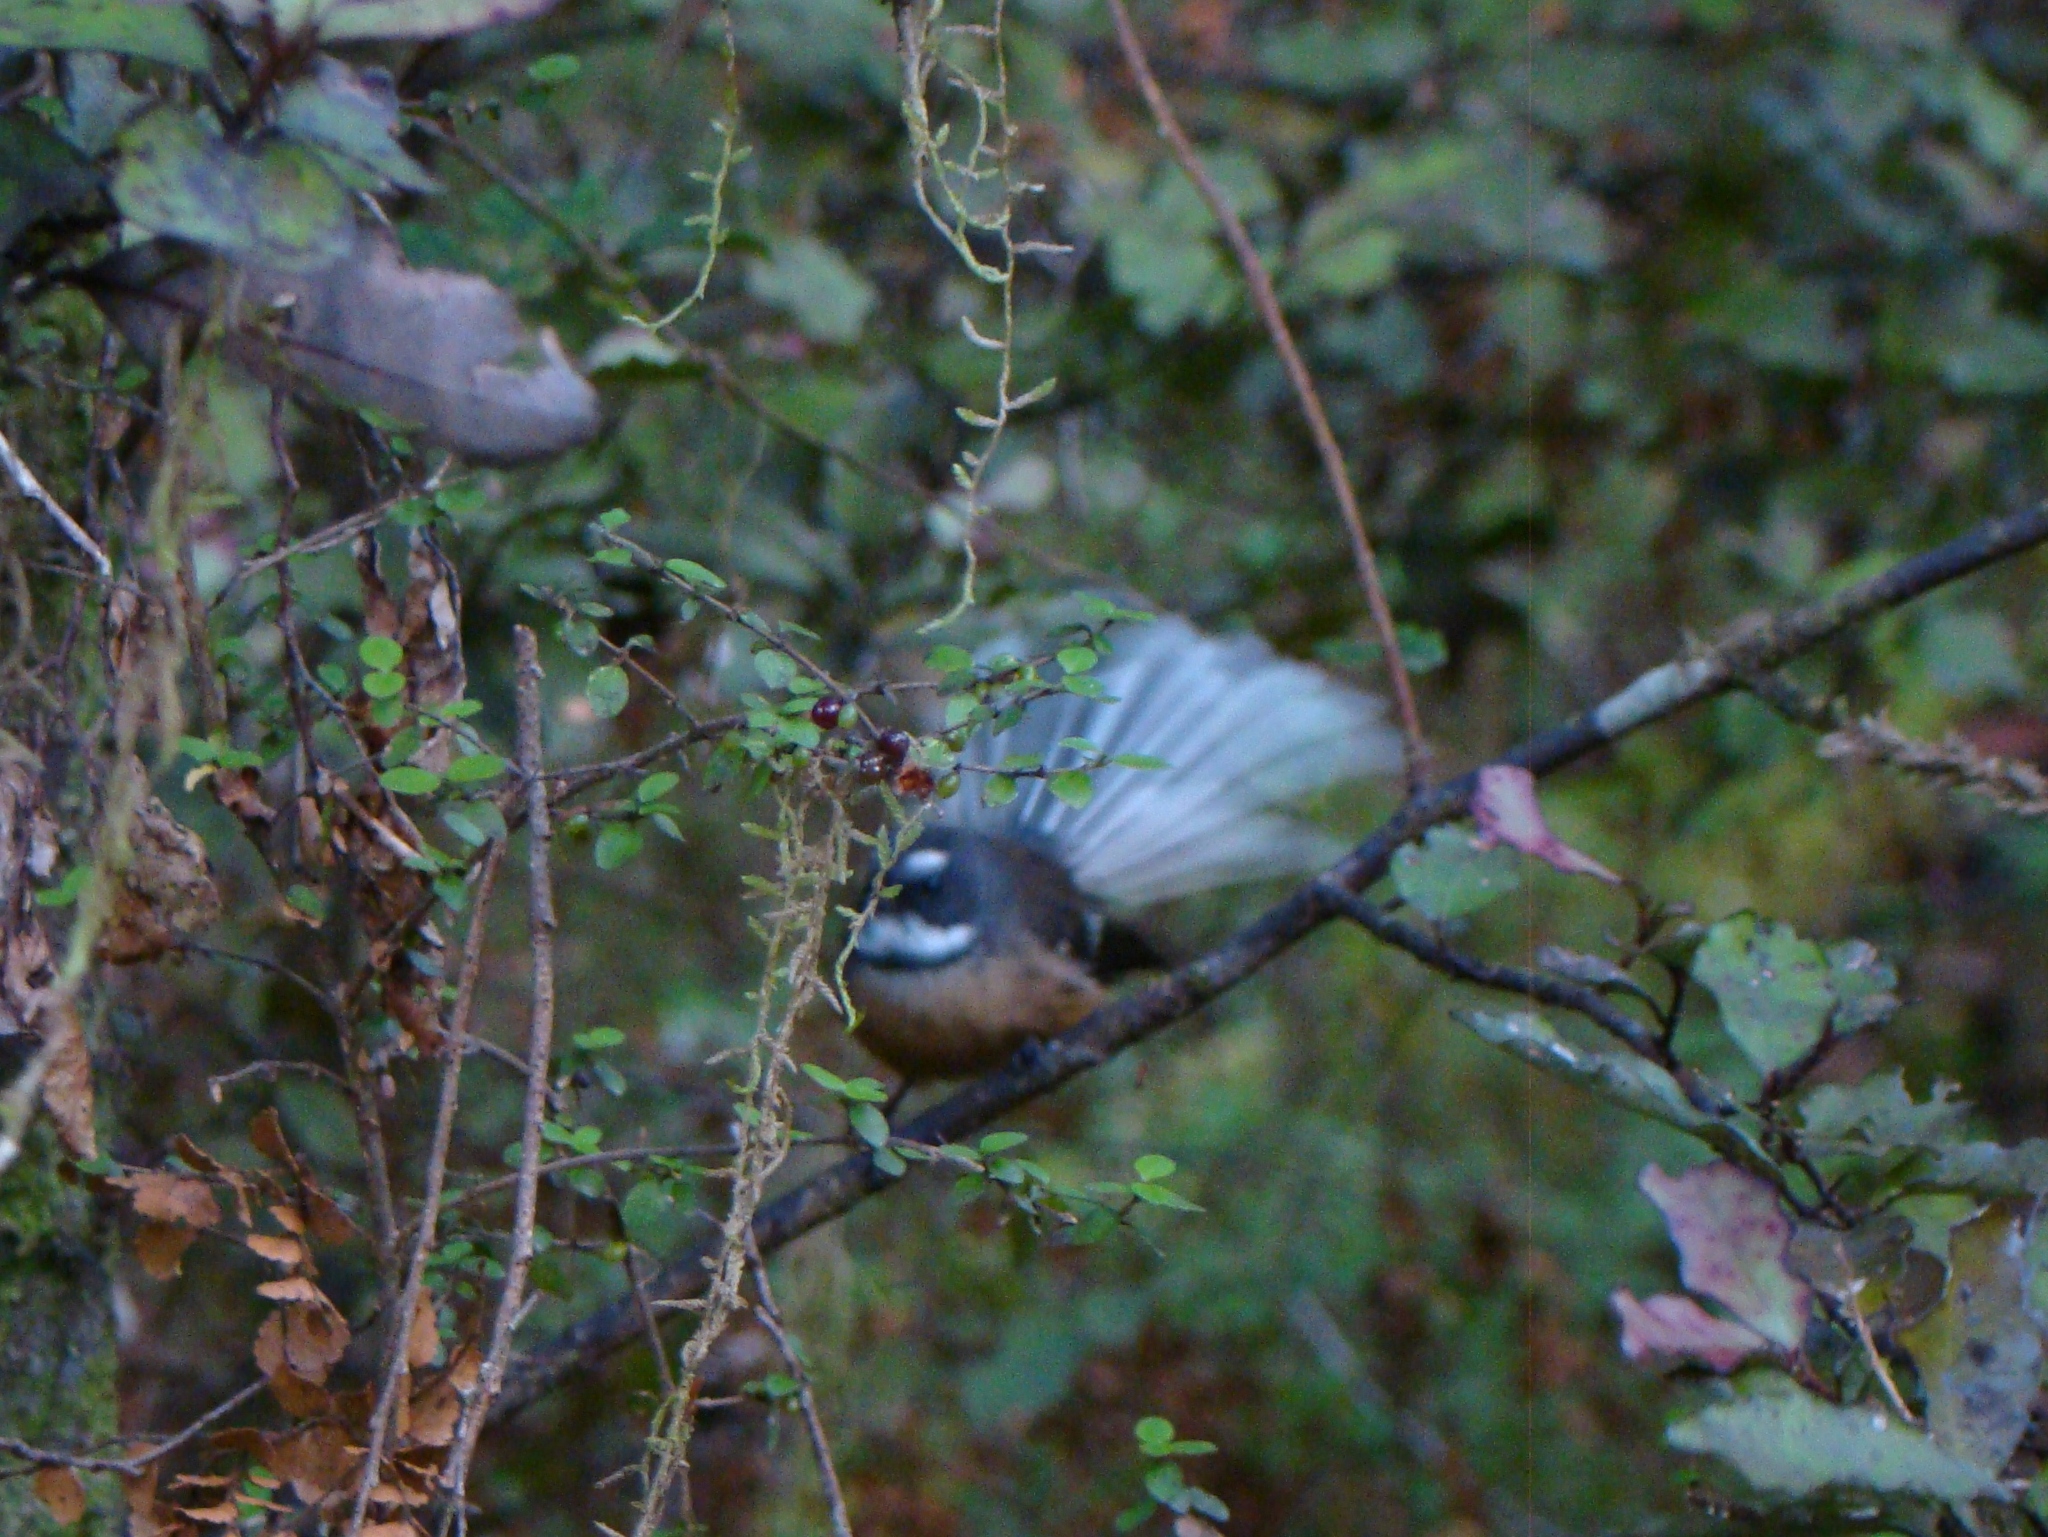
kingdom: Animalia
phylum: Chordata
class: Aves
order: Passeriformes
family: Rhipiduridae
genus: Rhipidura
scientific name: Rhipidura fuliginosa
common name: New zealand fantail
